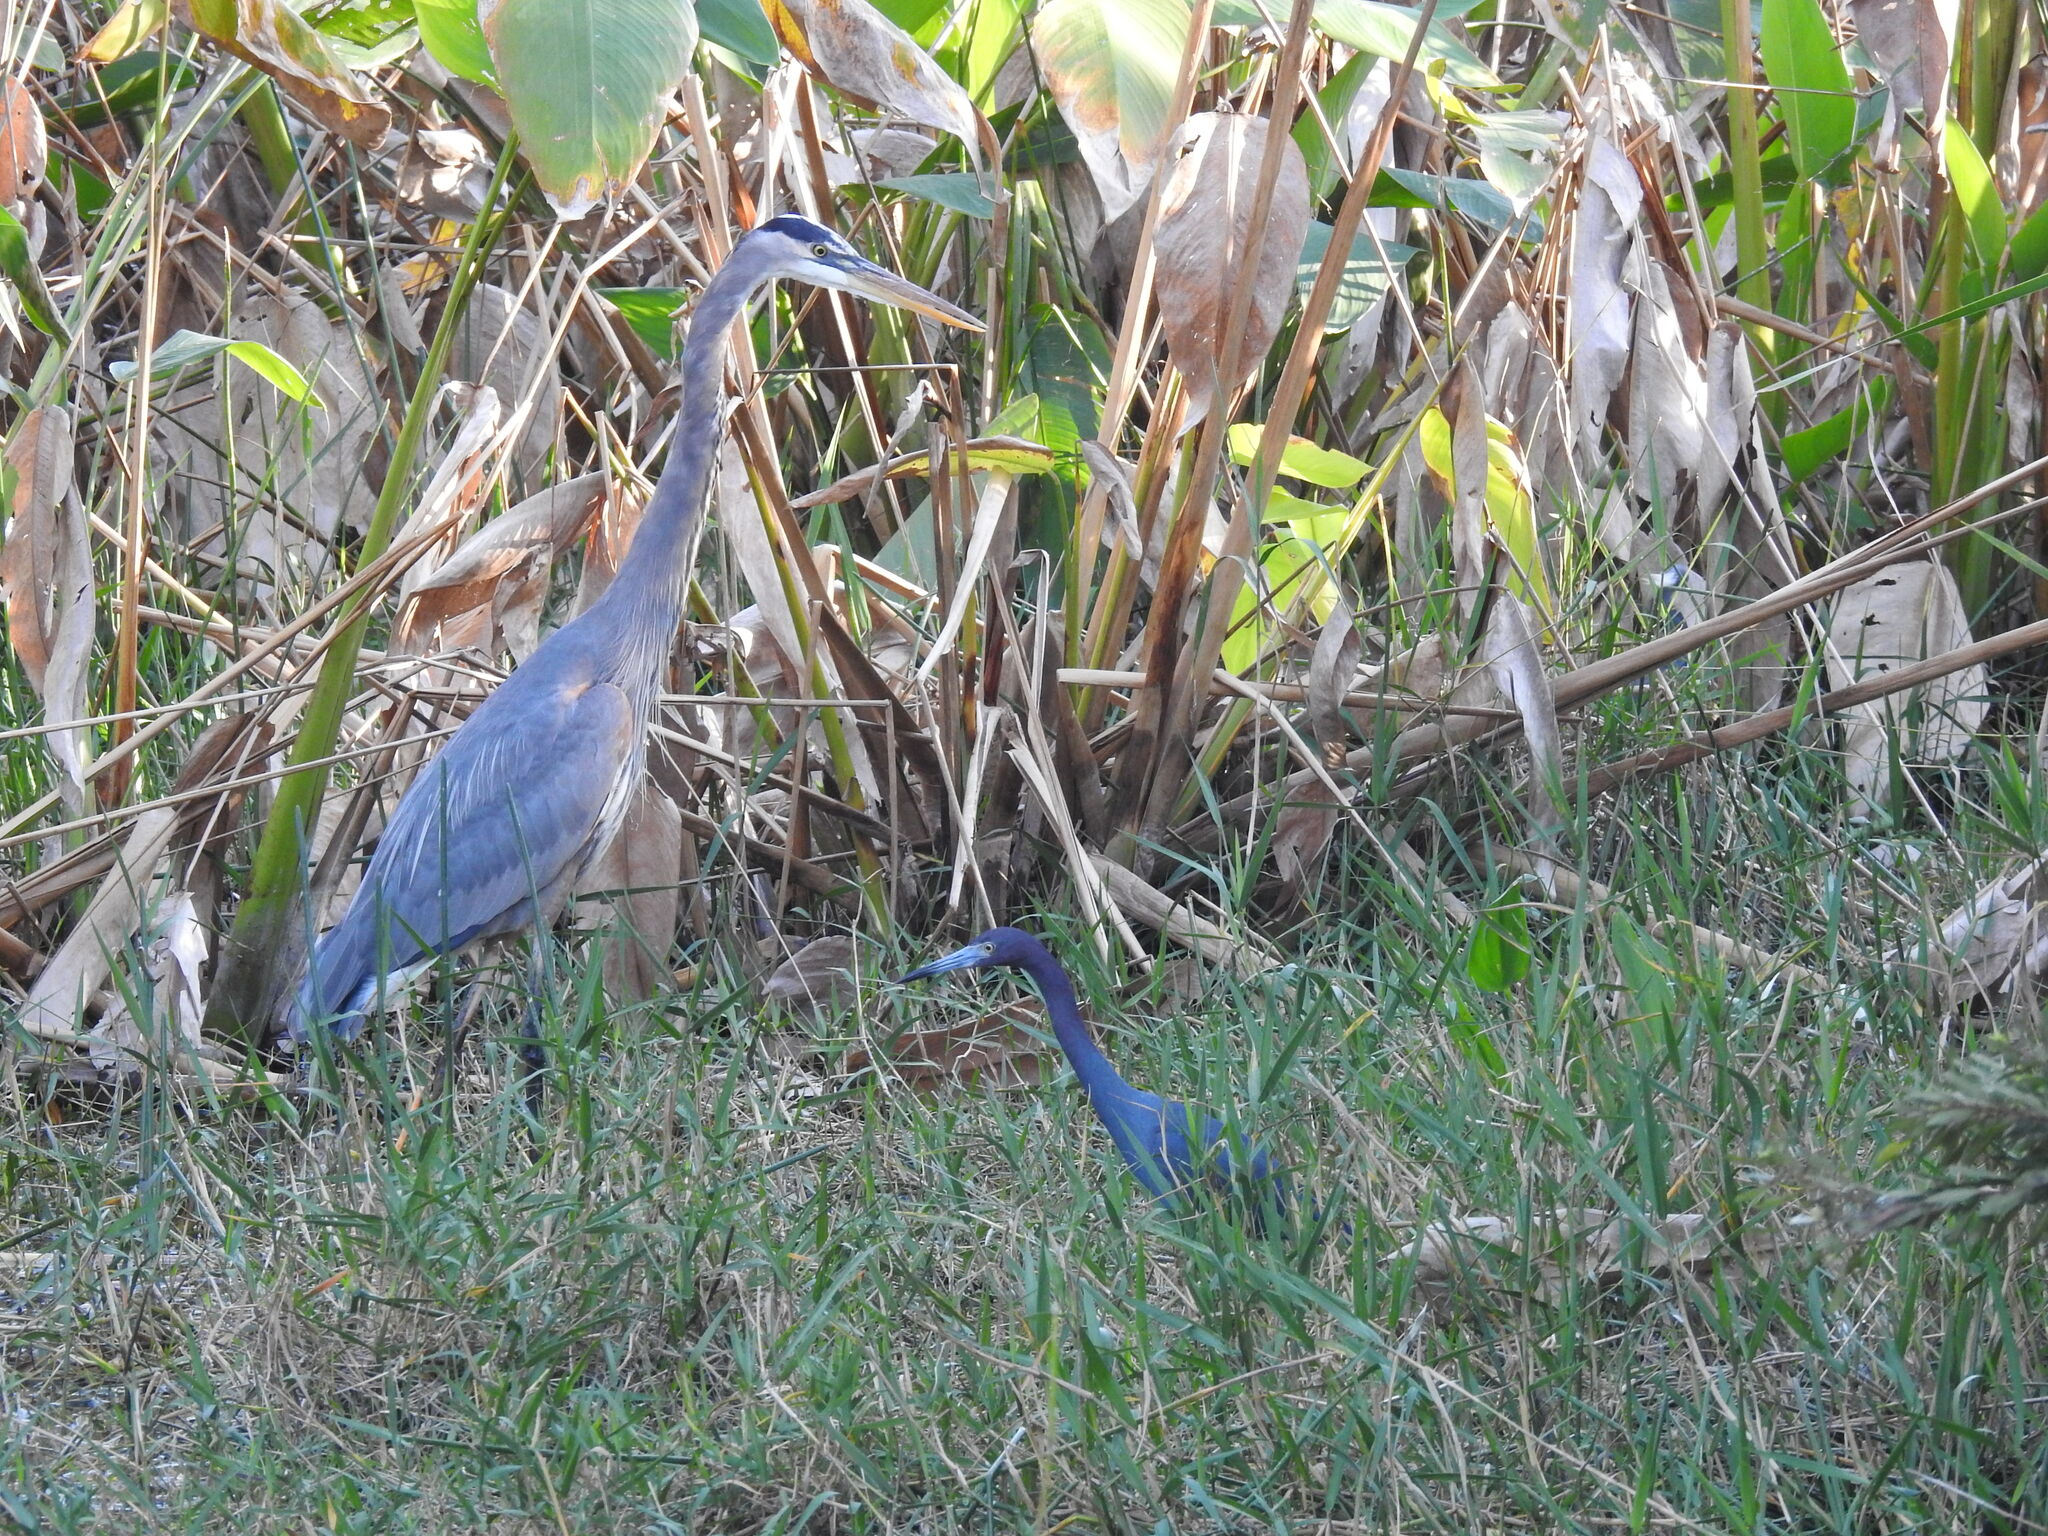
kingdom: Animalia
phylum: Chordata
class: Aves
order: Pelecaniformes
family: Ardeidae
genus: Ardea
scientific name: Ardea herodias
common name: Great blue heron
